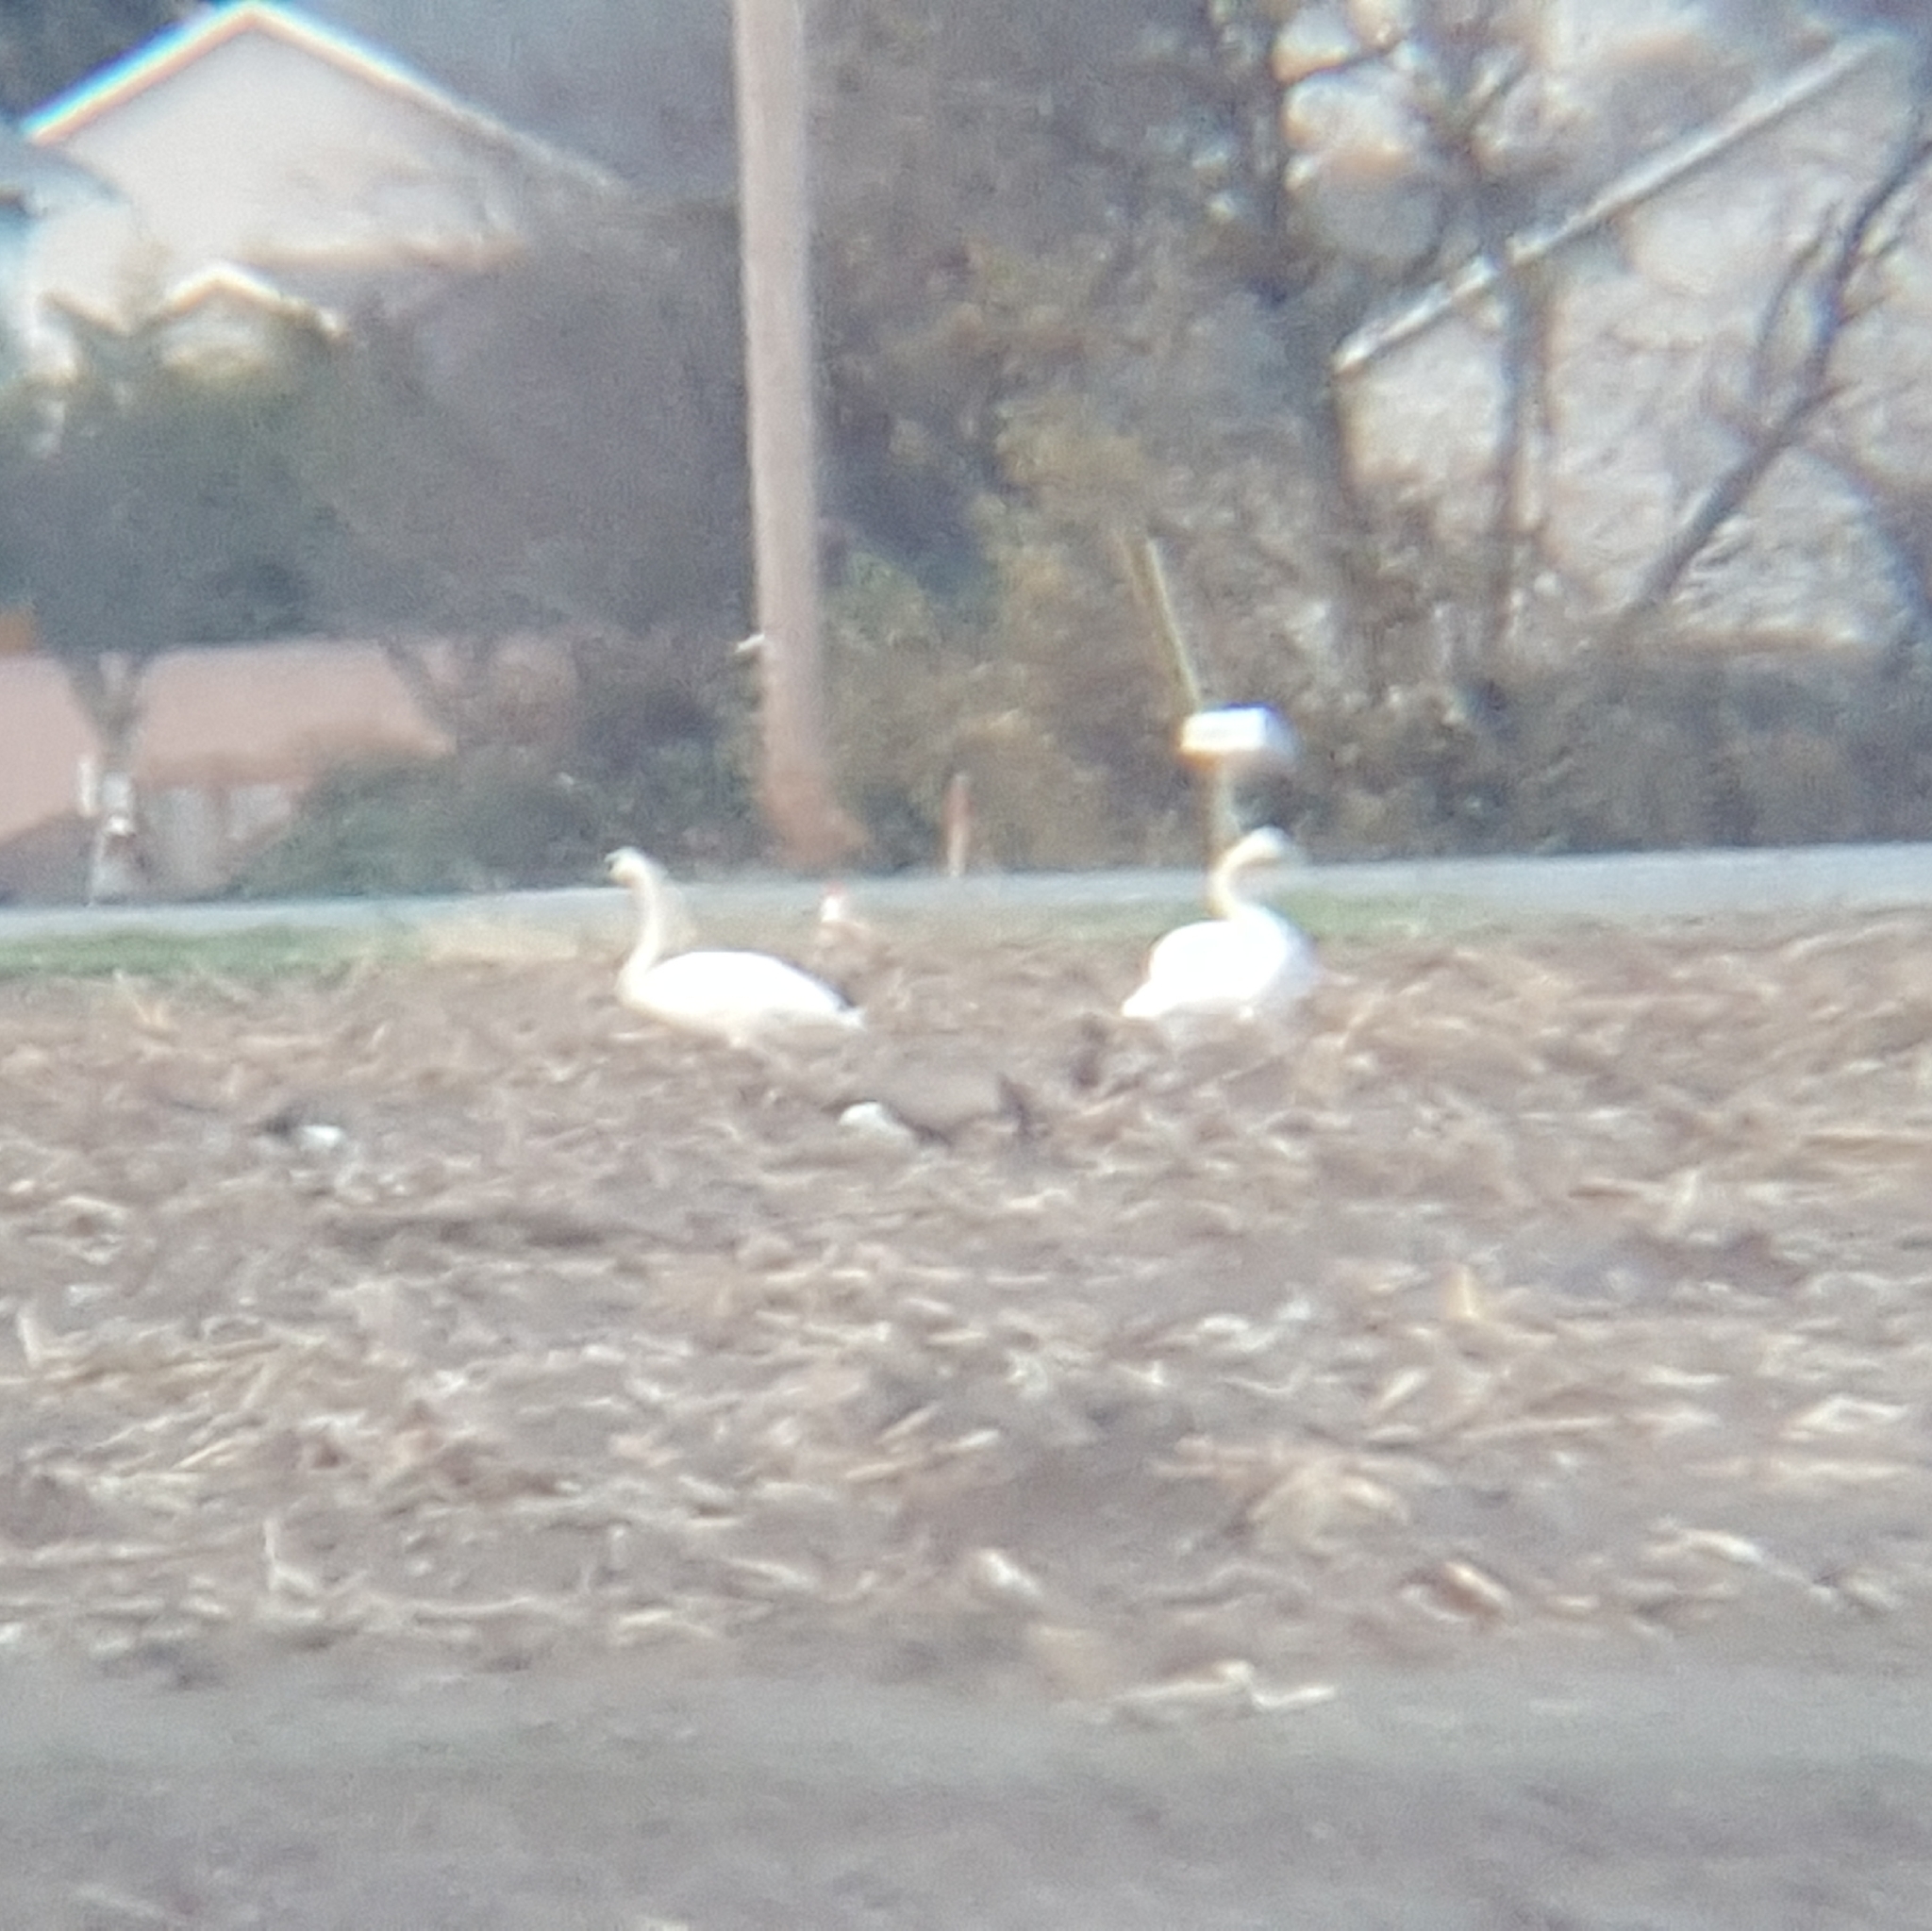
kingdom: Animalia
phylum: Chordata
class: Aves
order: Anseriformes
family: Anatidae
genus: Cygnus
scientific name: Cygnus buccinator
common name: Trumpeter swan
